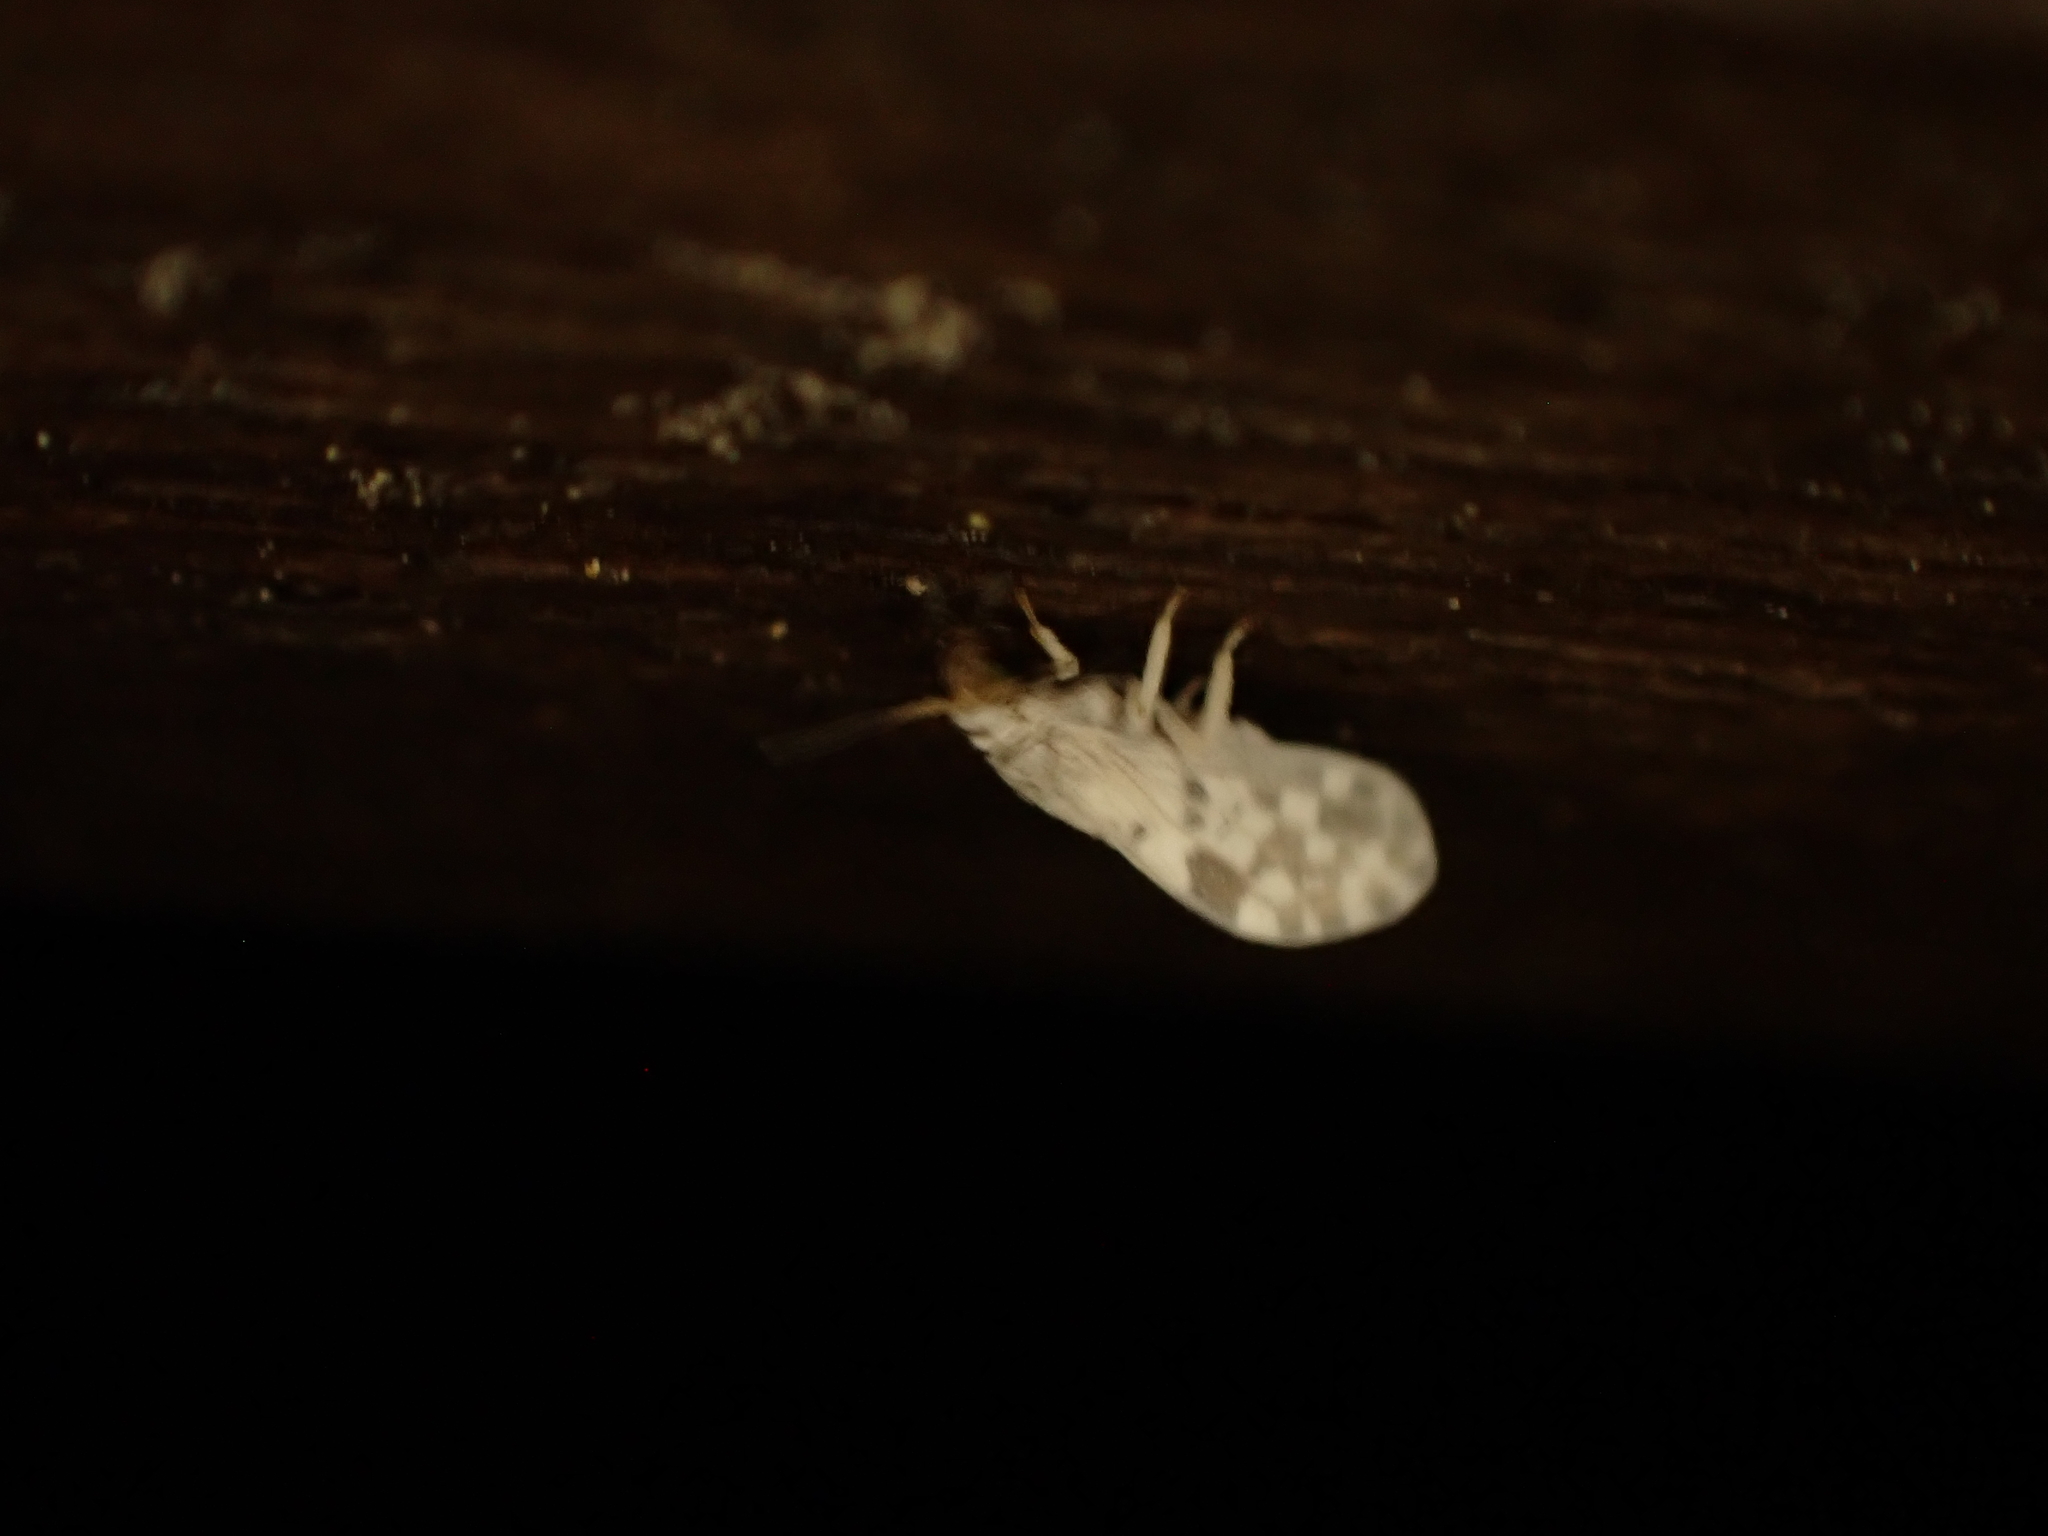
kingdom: Animalia
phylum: Arthropoda
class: Insecta
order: Neuroptera
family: Coniopterygidae
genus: Heteroconis
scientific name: Heteroconis ornata
